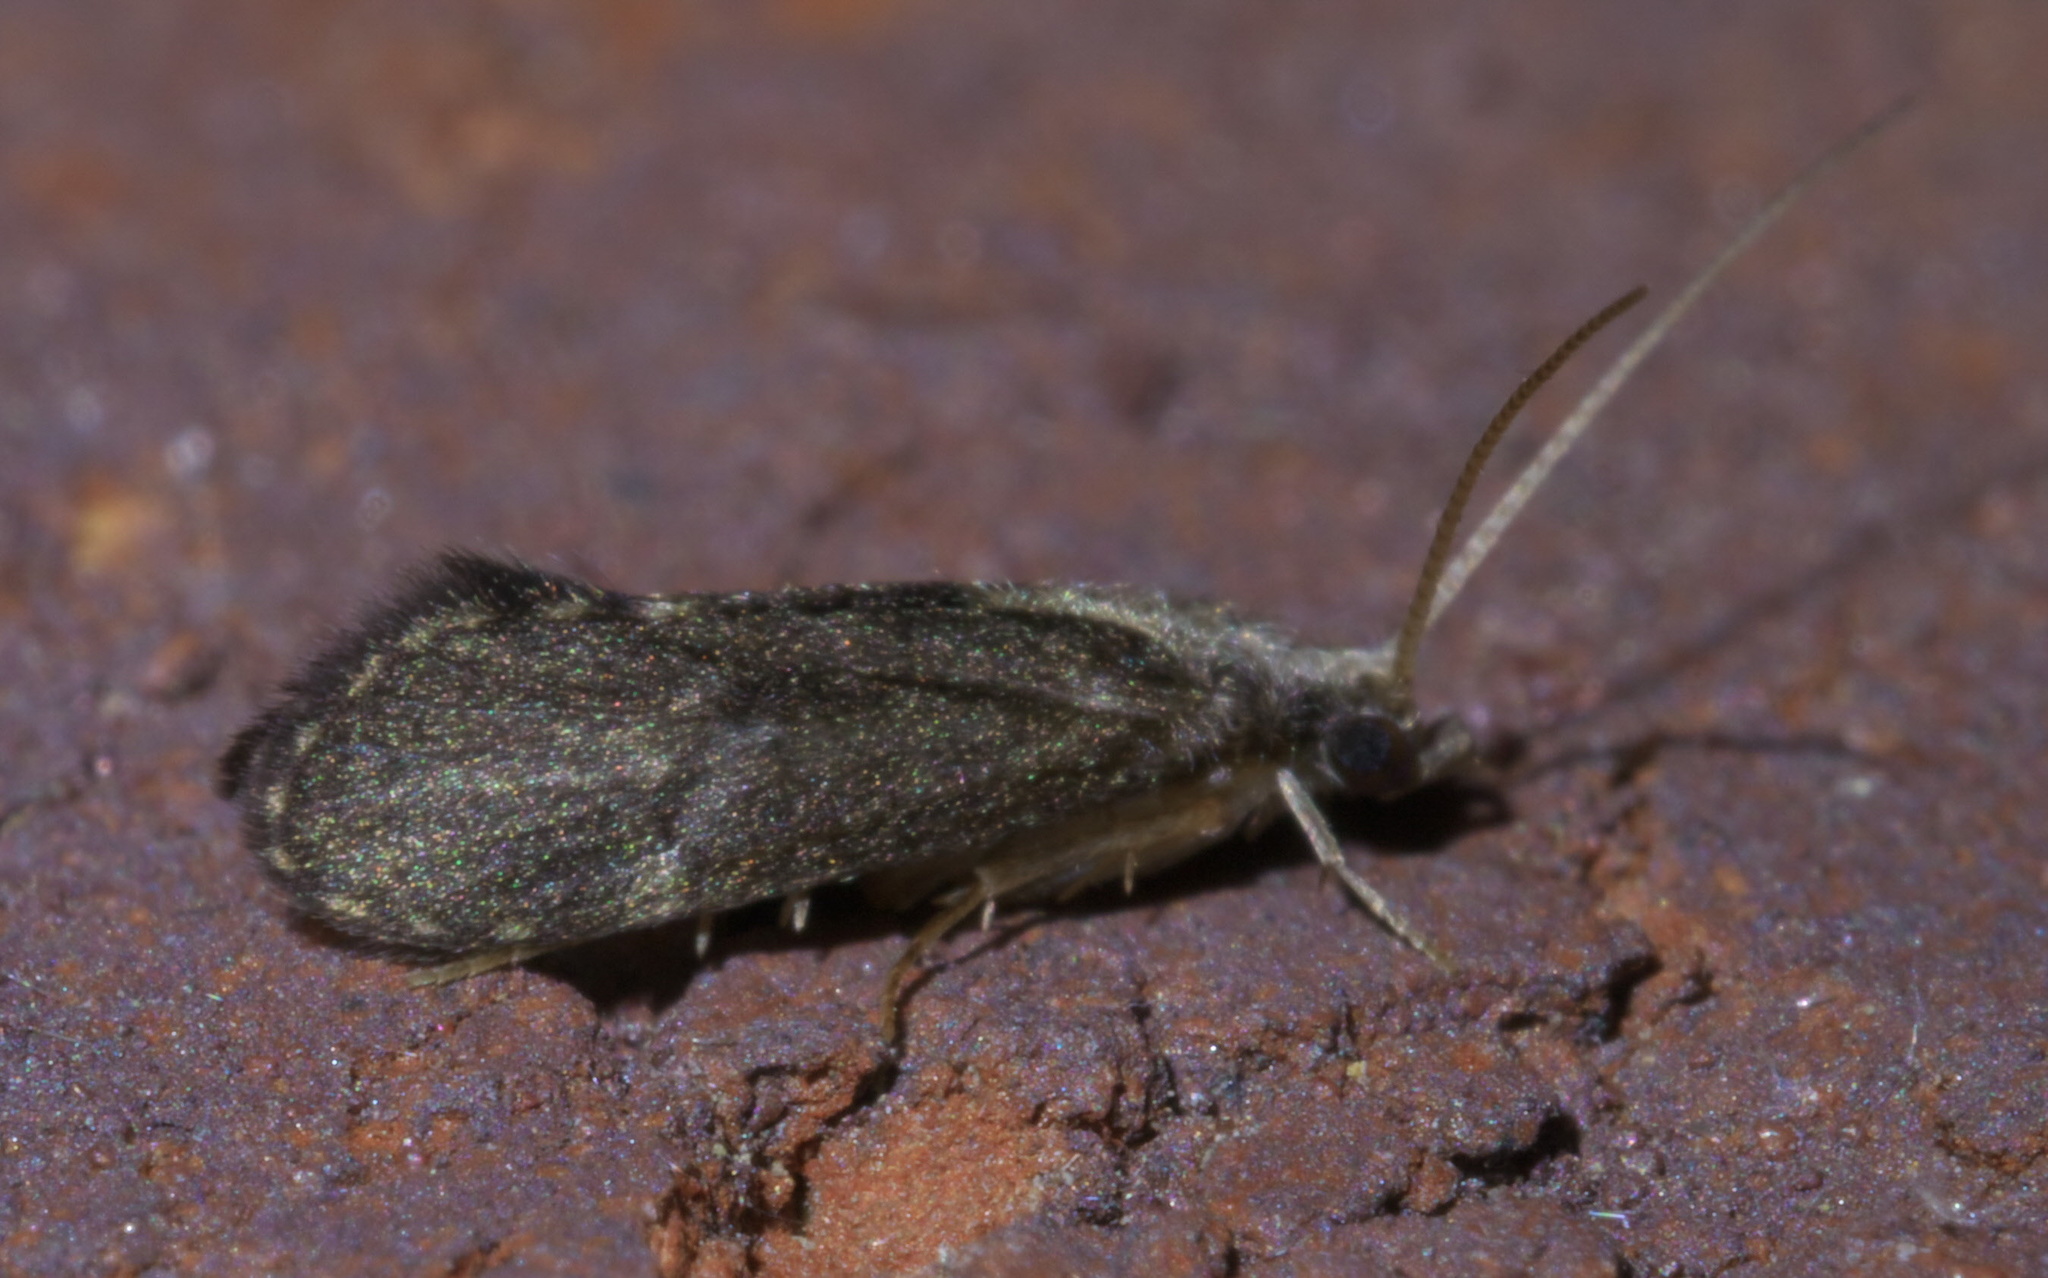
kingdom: Animalia
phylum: Arthropoda
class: Insecta
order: Trichoptera
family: Polycentropodidae
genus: Cyrnellus
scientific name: Cyrnellus fraternus
